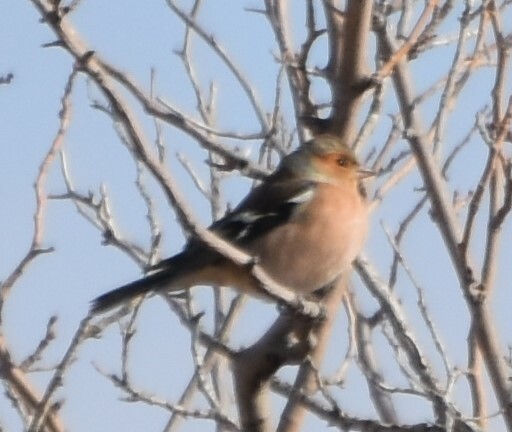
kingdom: Animalia
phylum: Chordata
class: Aves
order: Passeriformes
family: Fringillidae
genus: Fringilla
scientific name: Fringilla coelebs
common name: Common chaffinch
